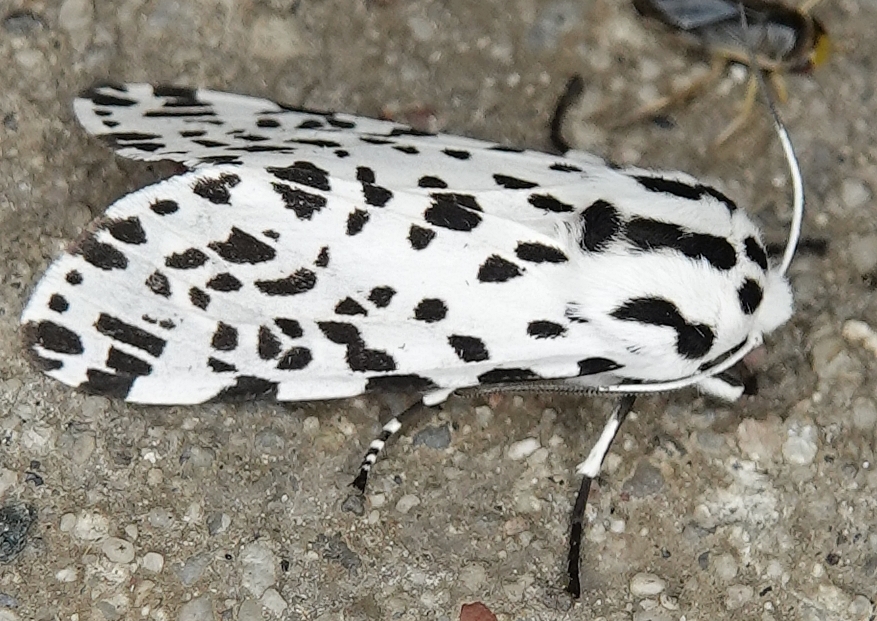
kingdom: Animalia
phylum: Arthropoda
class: Insecta
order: Lepidoptera
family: Erebidae
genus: Hypercompe
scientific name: Hypercompe permaculata
